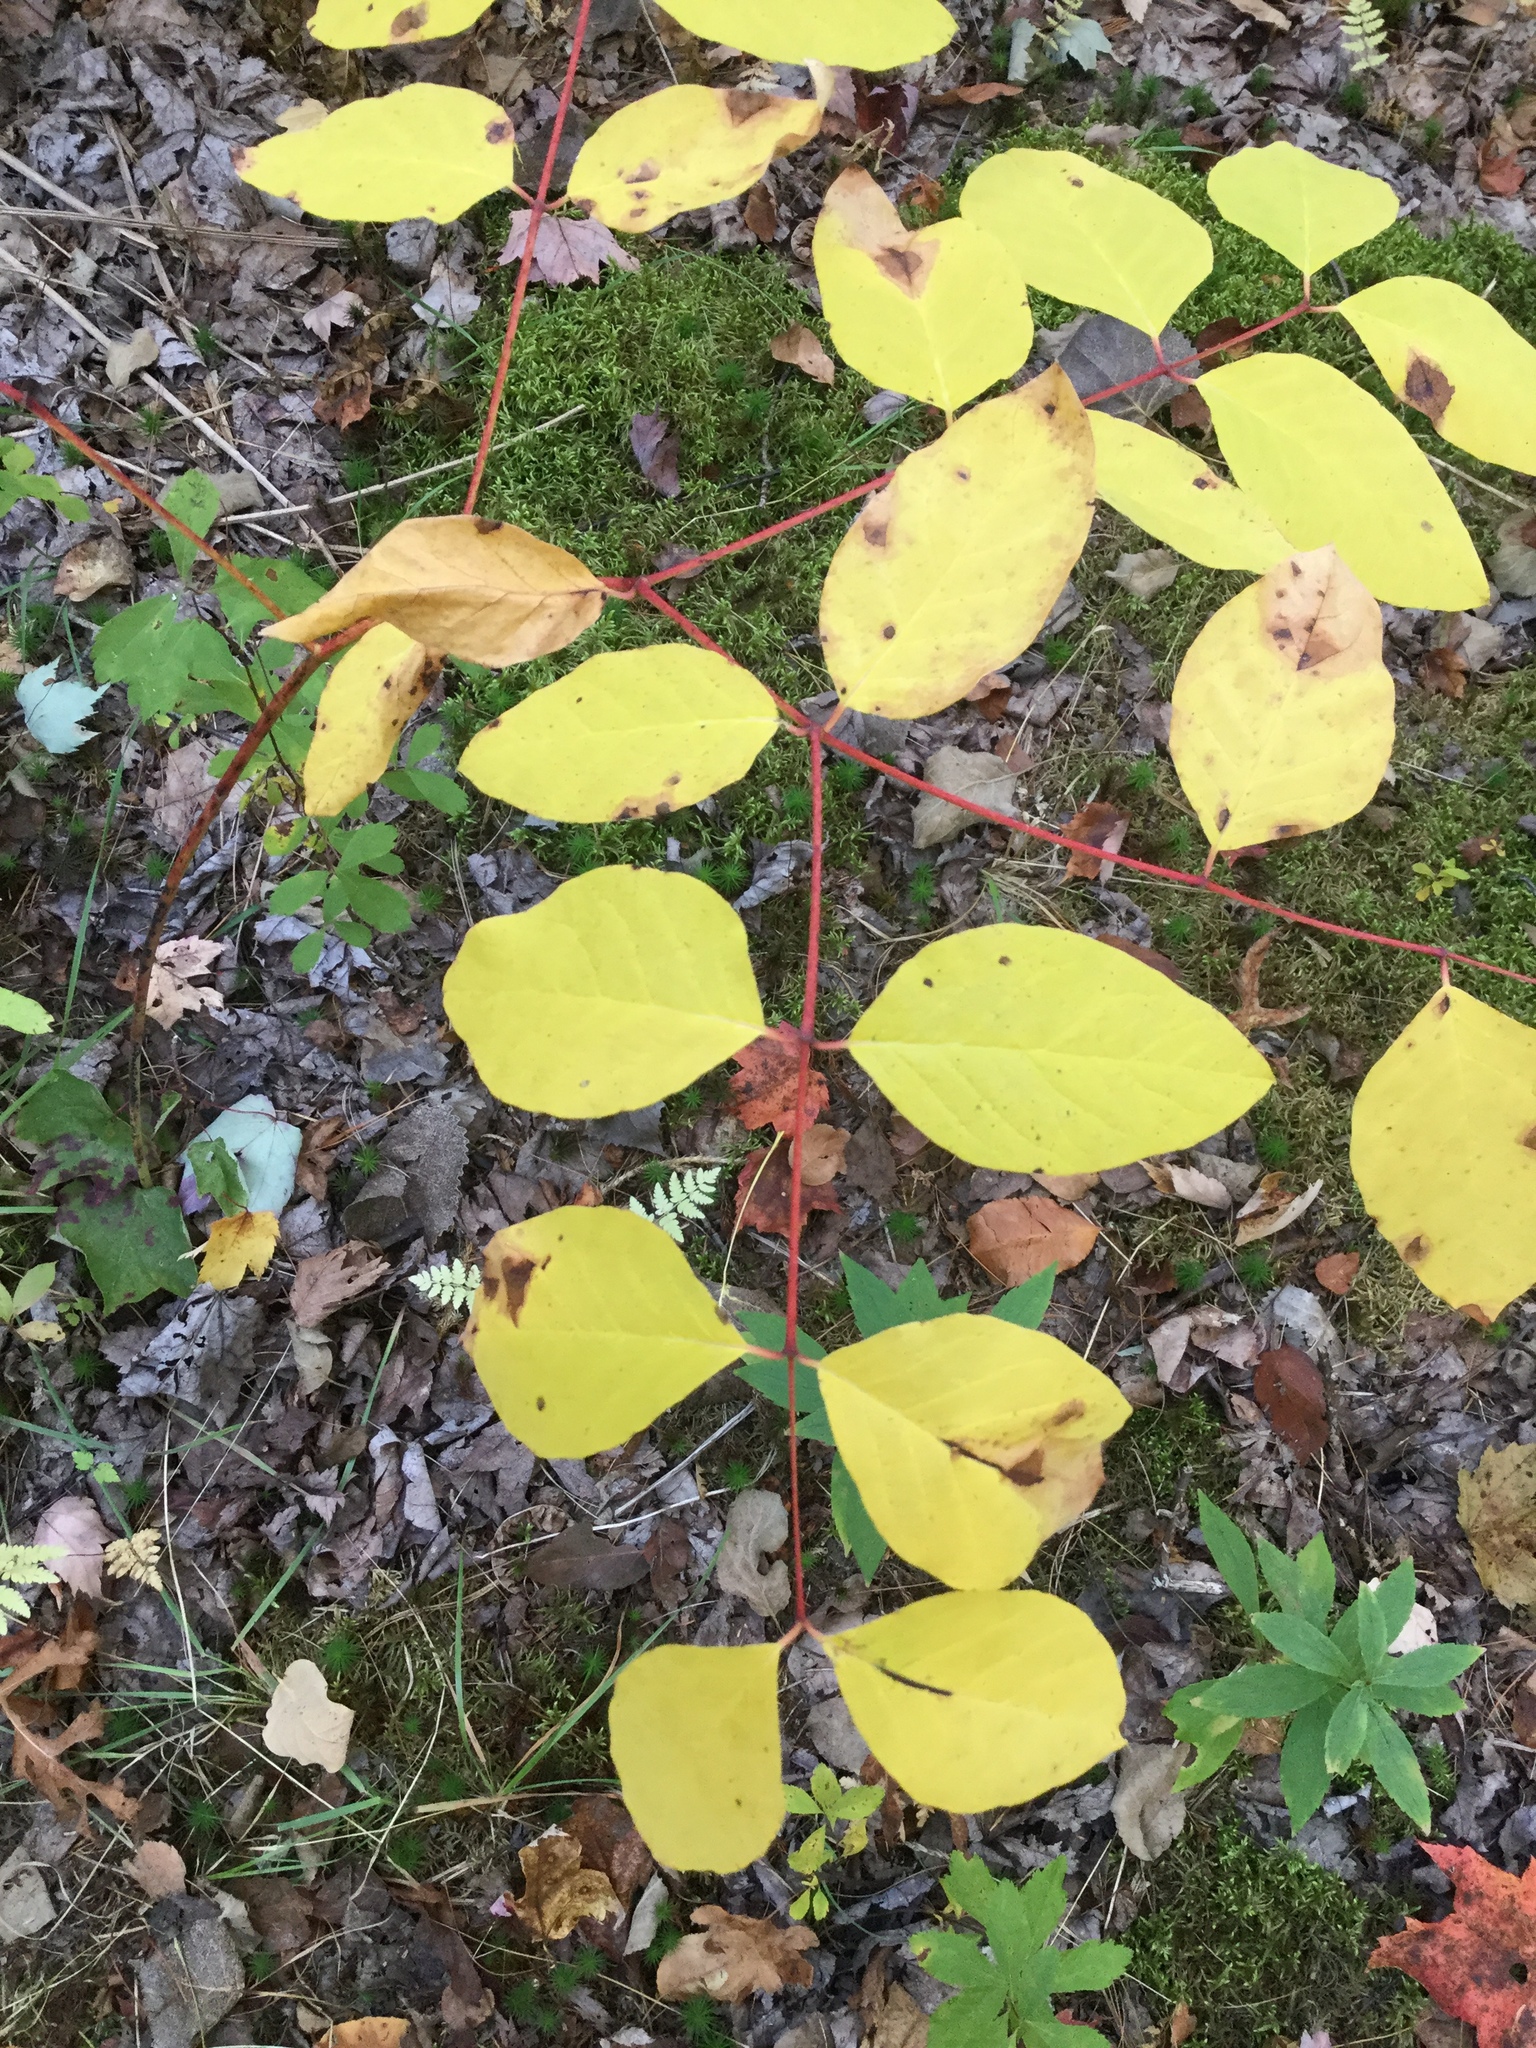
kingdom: Plantae
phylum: Tracheophyta
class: Magnoliopsida
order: Gentianales
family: Apocynaceae
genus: Apocynum
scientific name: Apocynum androsaemifolium
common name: Spreading dogbane
